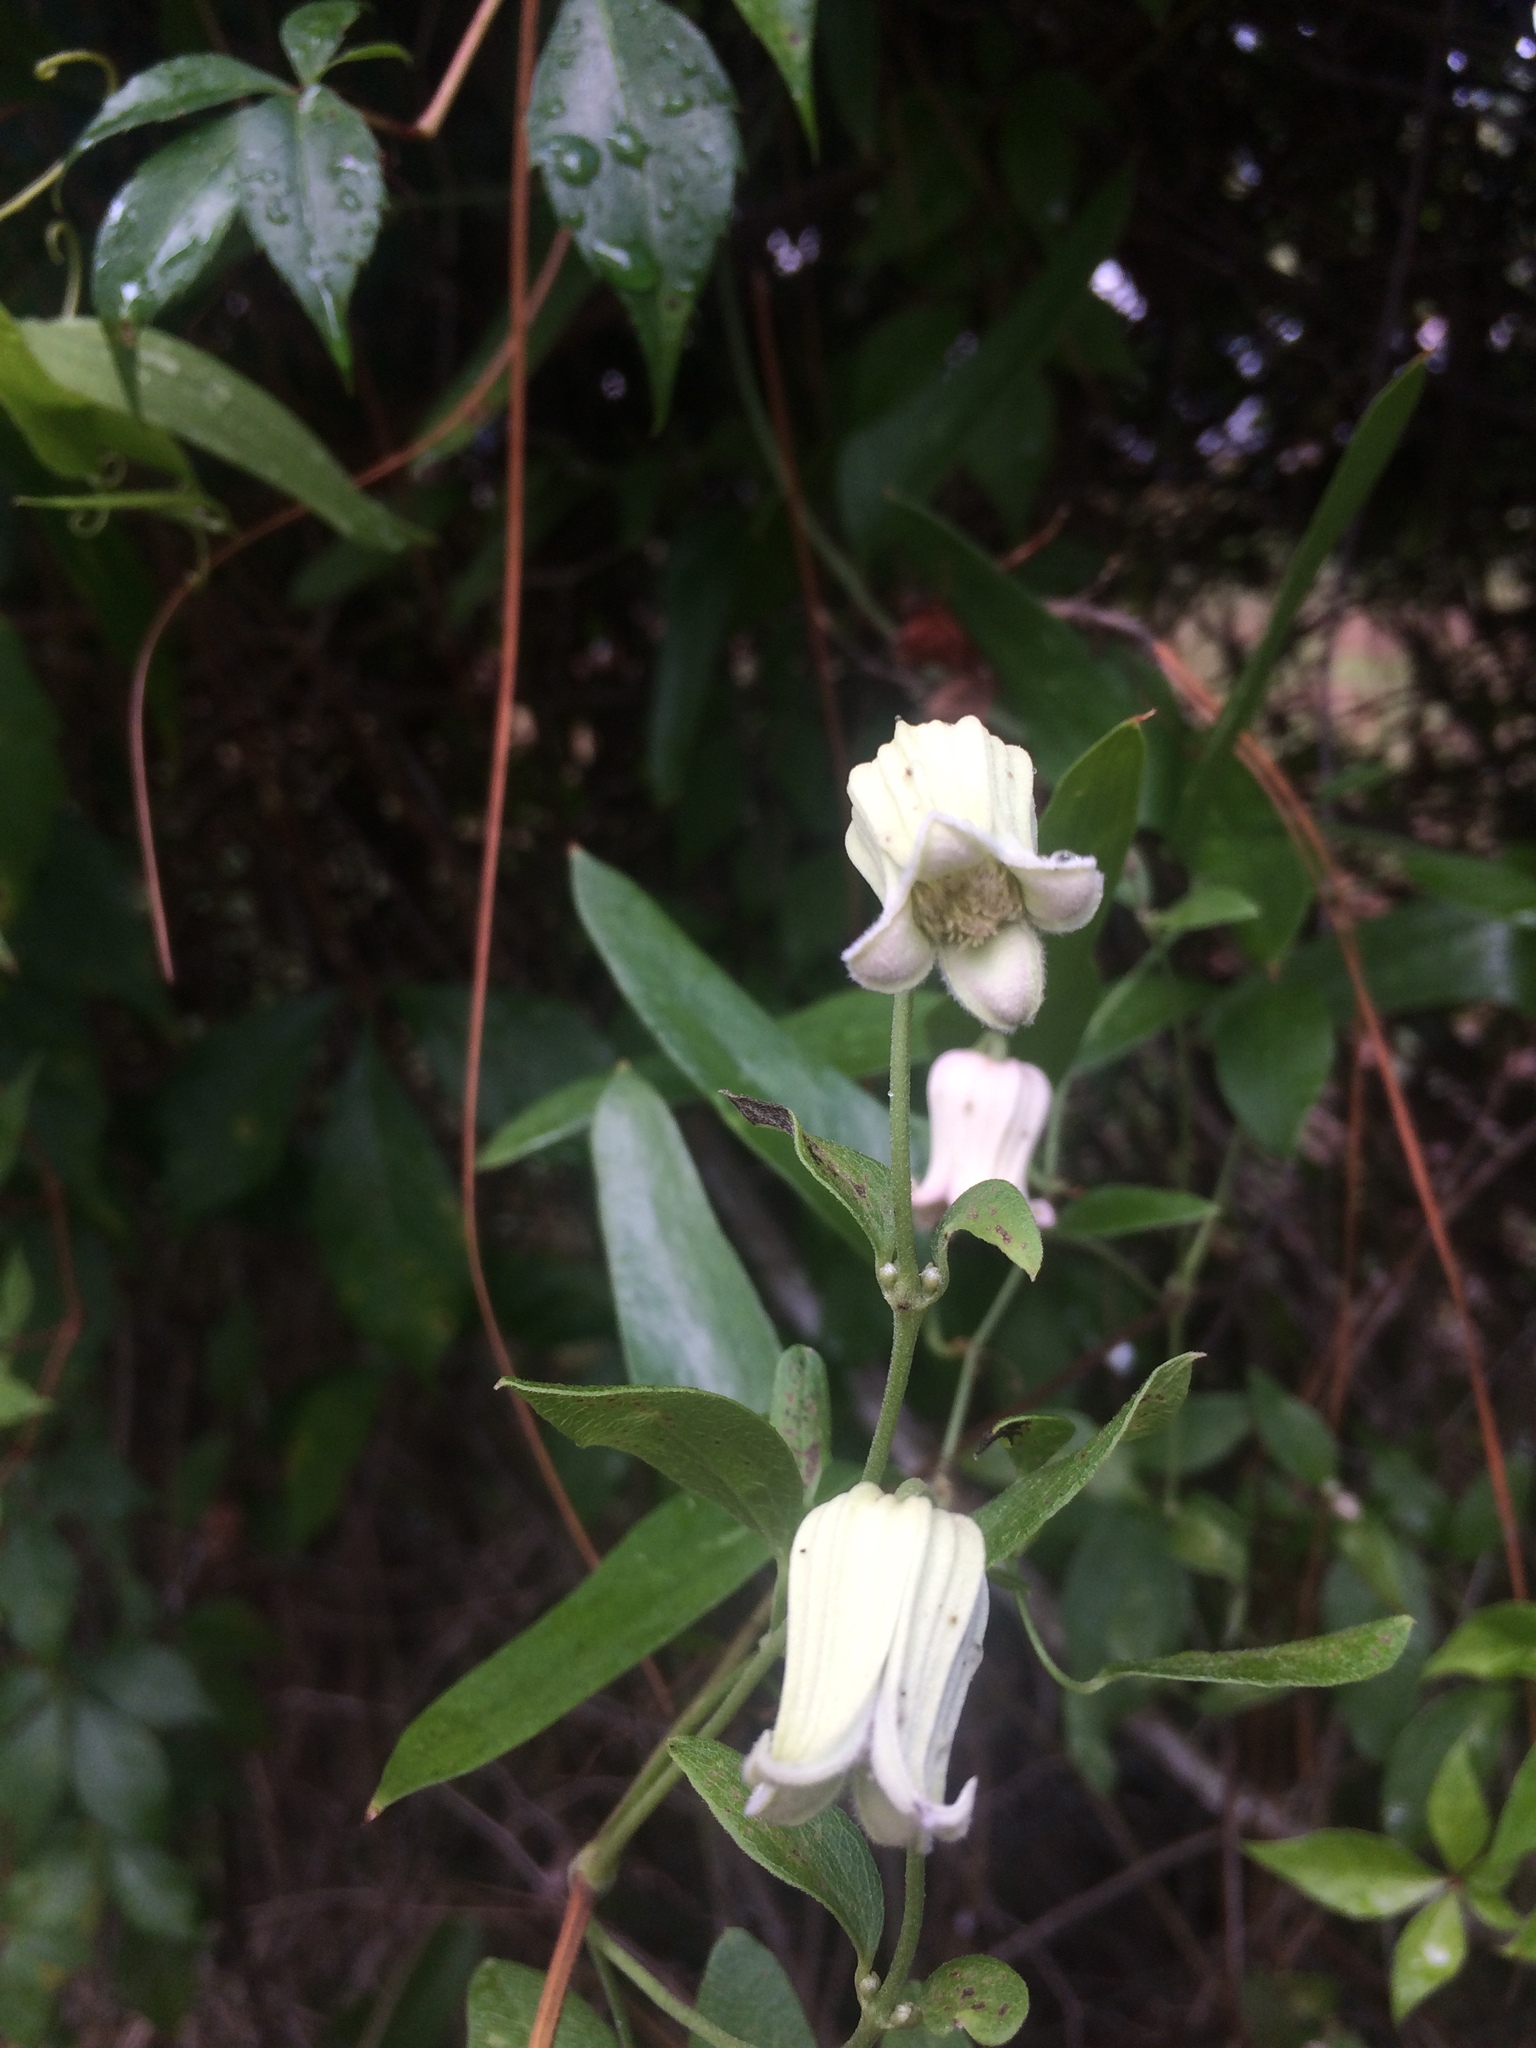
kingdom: Plantae
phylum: Tracheophyta
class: Magnoliopsida
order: Ranunculales
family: Ranunculaceae
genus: Clematis
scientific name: Clematis reticulata
